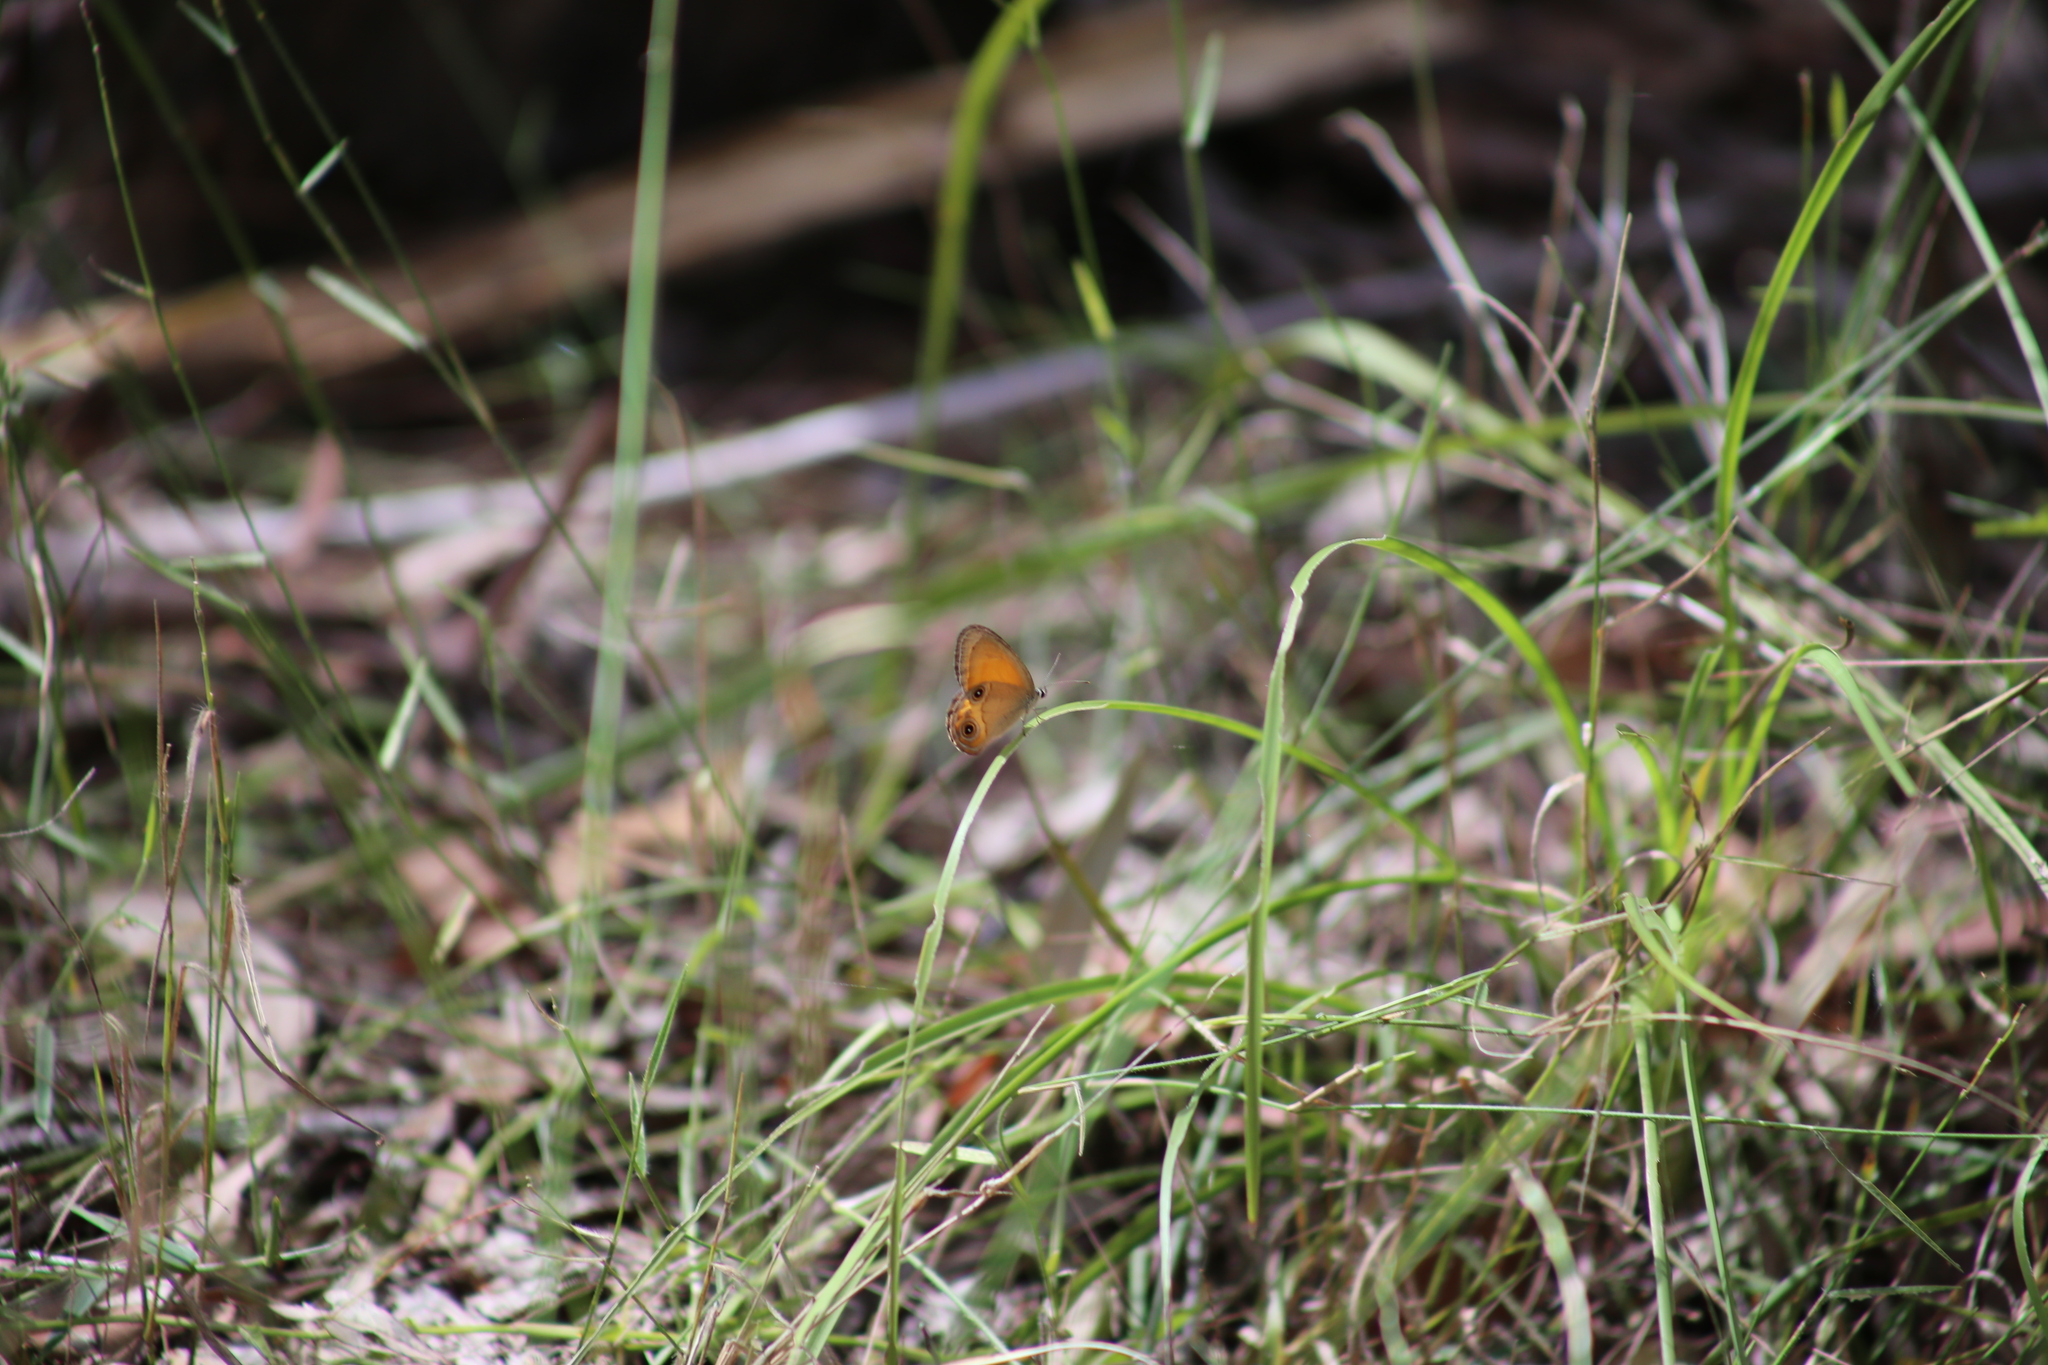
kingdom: Animalia
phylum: Arthropoda
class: Insecta
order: Lepidoptera
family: Nymphalidae
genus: Hypocysta
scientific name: Hypocysta adiante
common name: Orange ringlet
